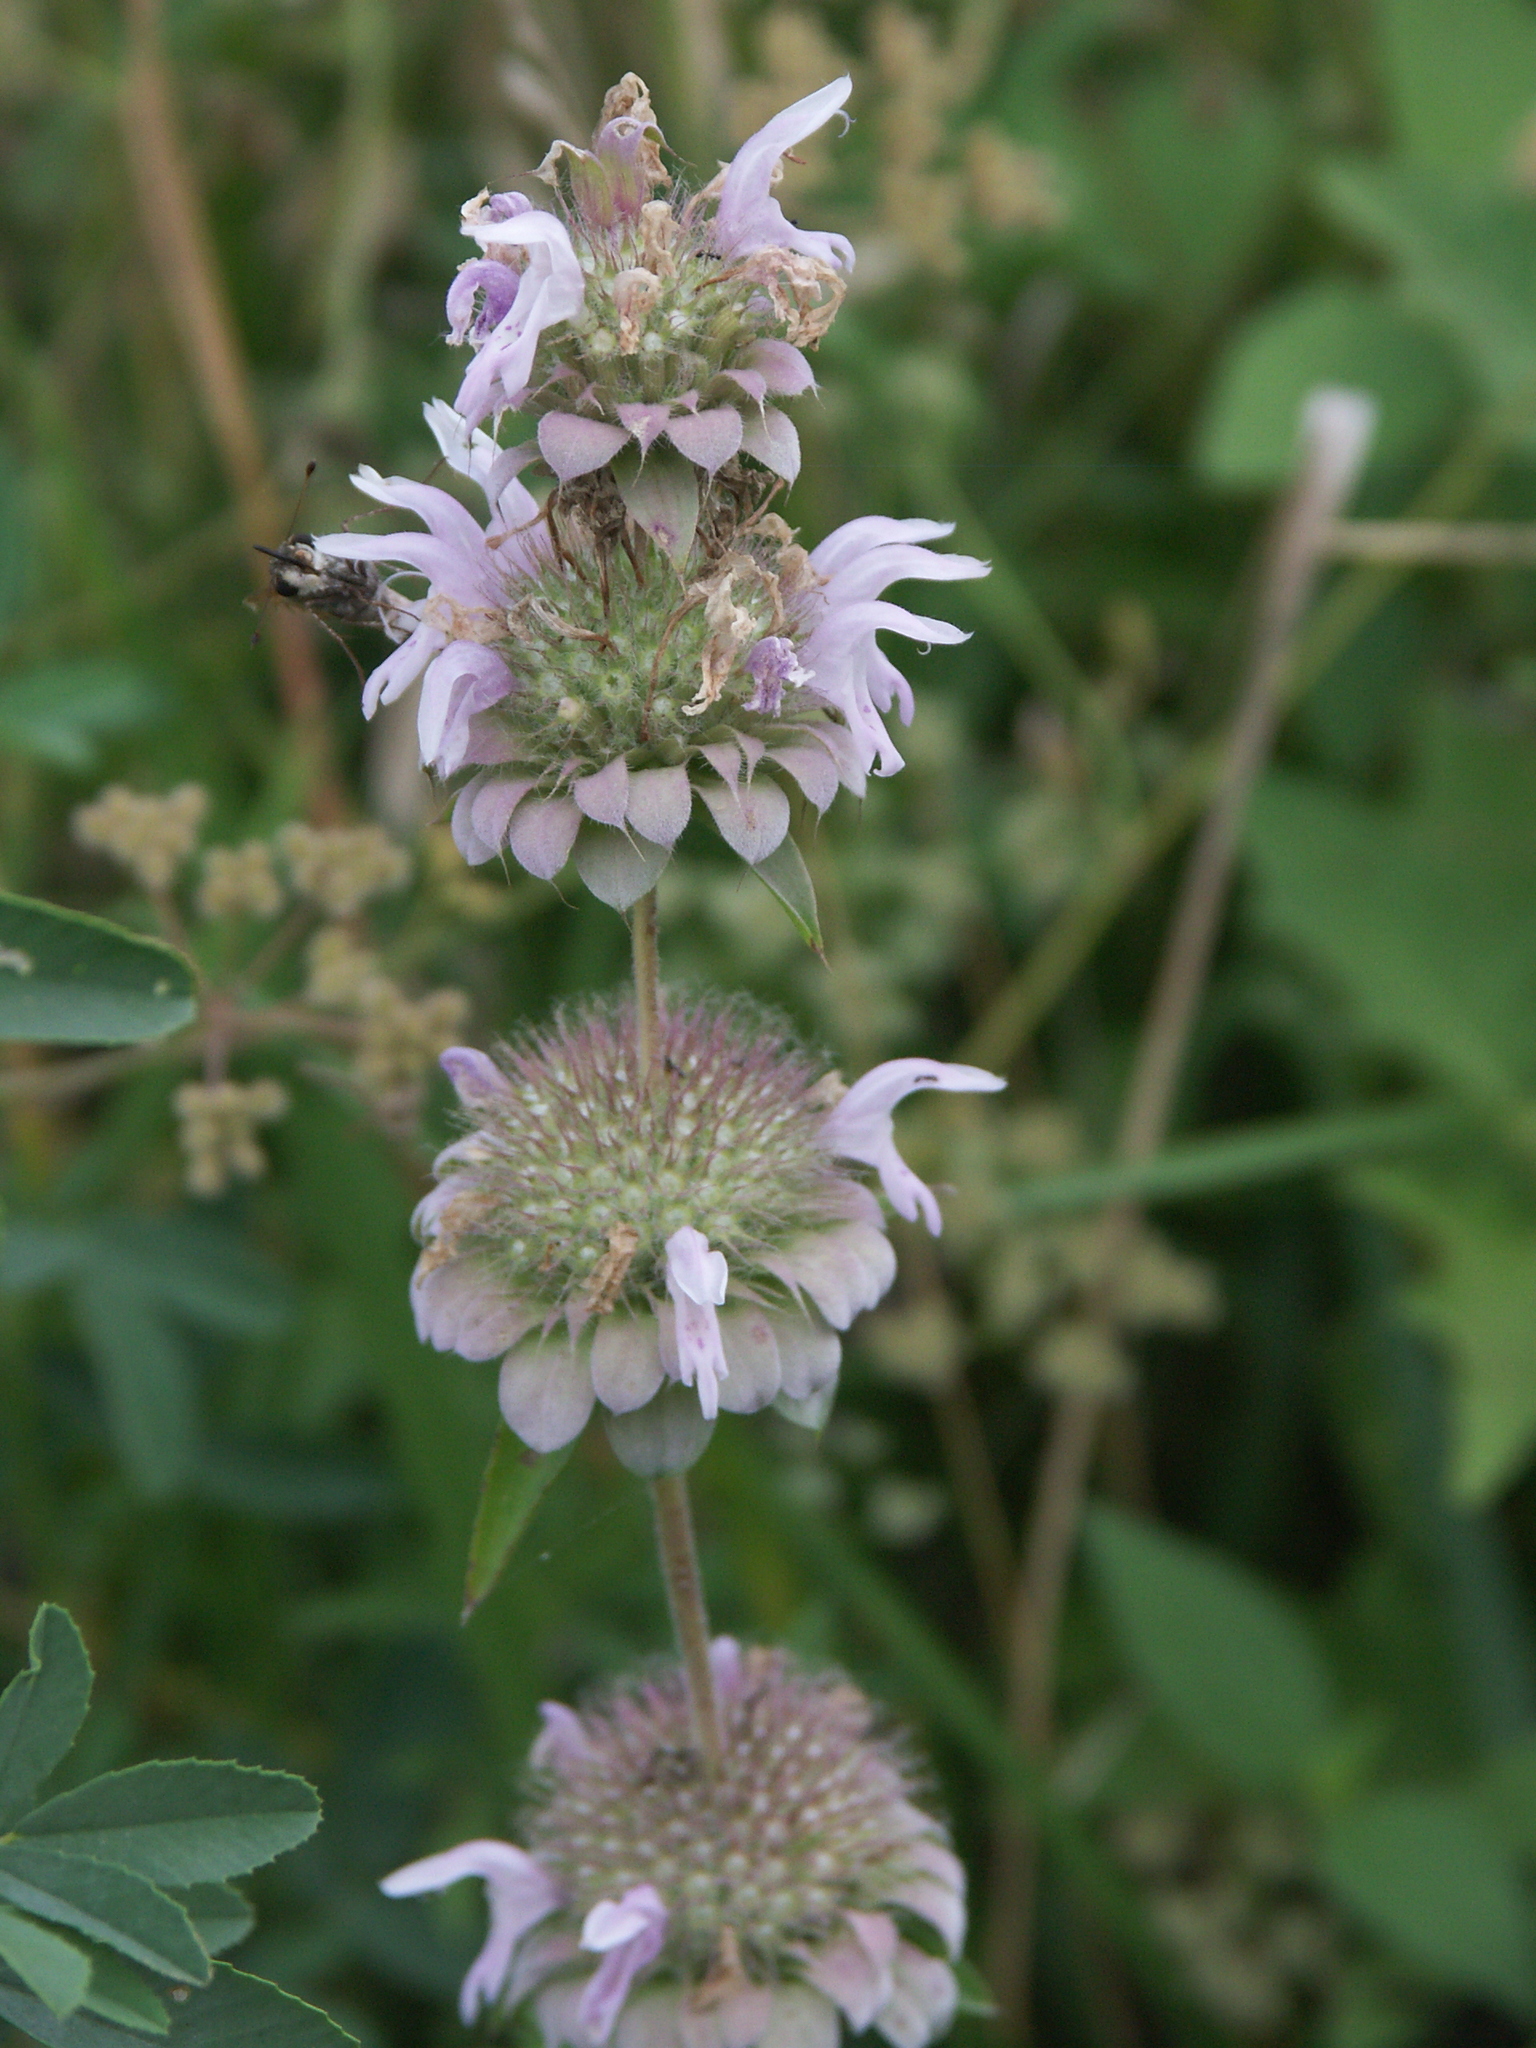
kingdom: Plantae
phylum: Tracheophyta
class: Magnoliopsida
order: Lamiales
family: Lamiaceae
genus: Monarda
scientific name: Monarda citriodora
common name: Lemon beebalm
